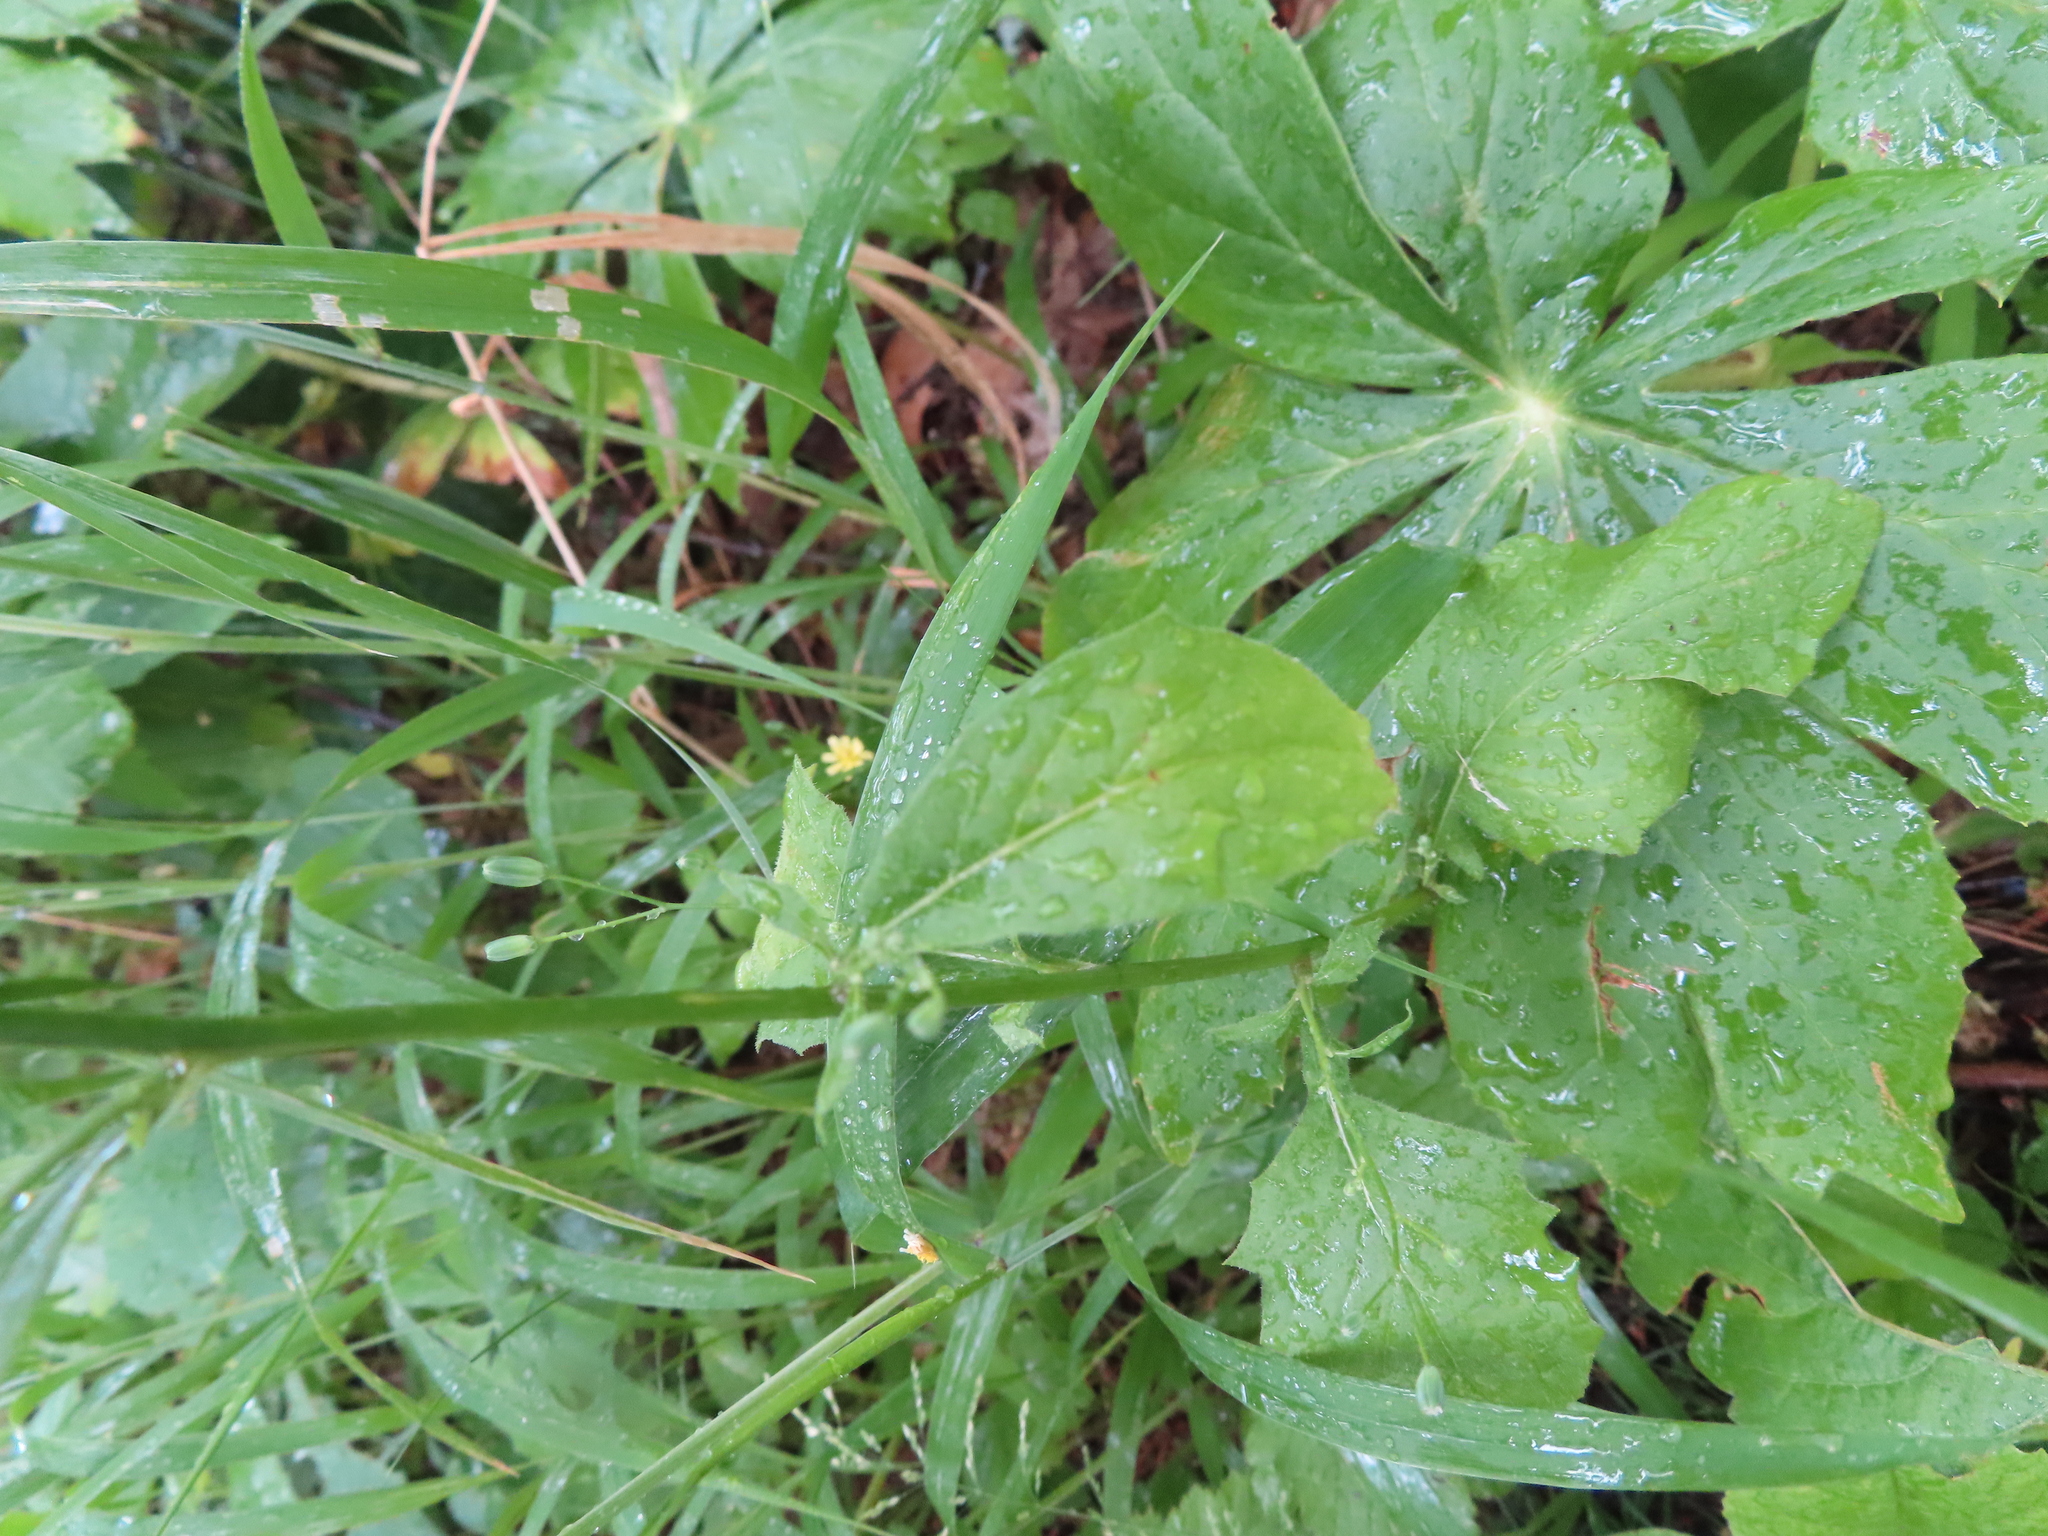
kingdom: Plantae
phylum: Tracheophyta
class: Magnoliopsida
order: Asterales
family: Asteraceae
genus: Lapsana
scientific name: Lapsana communis
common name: Nipplewort
